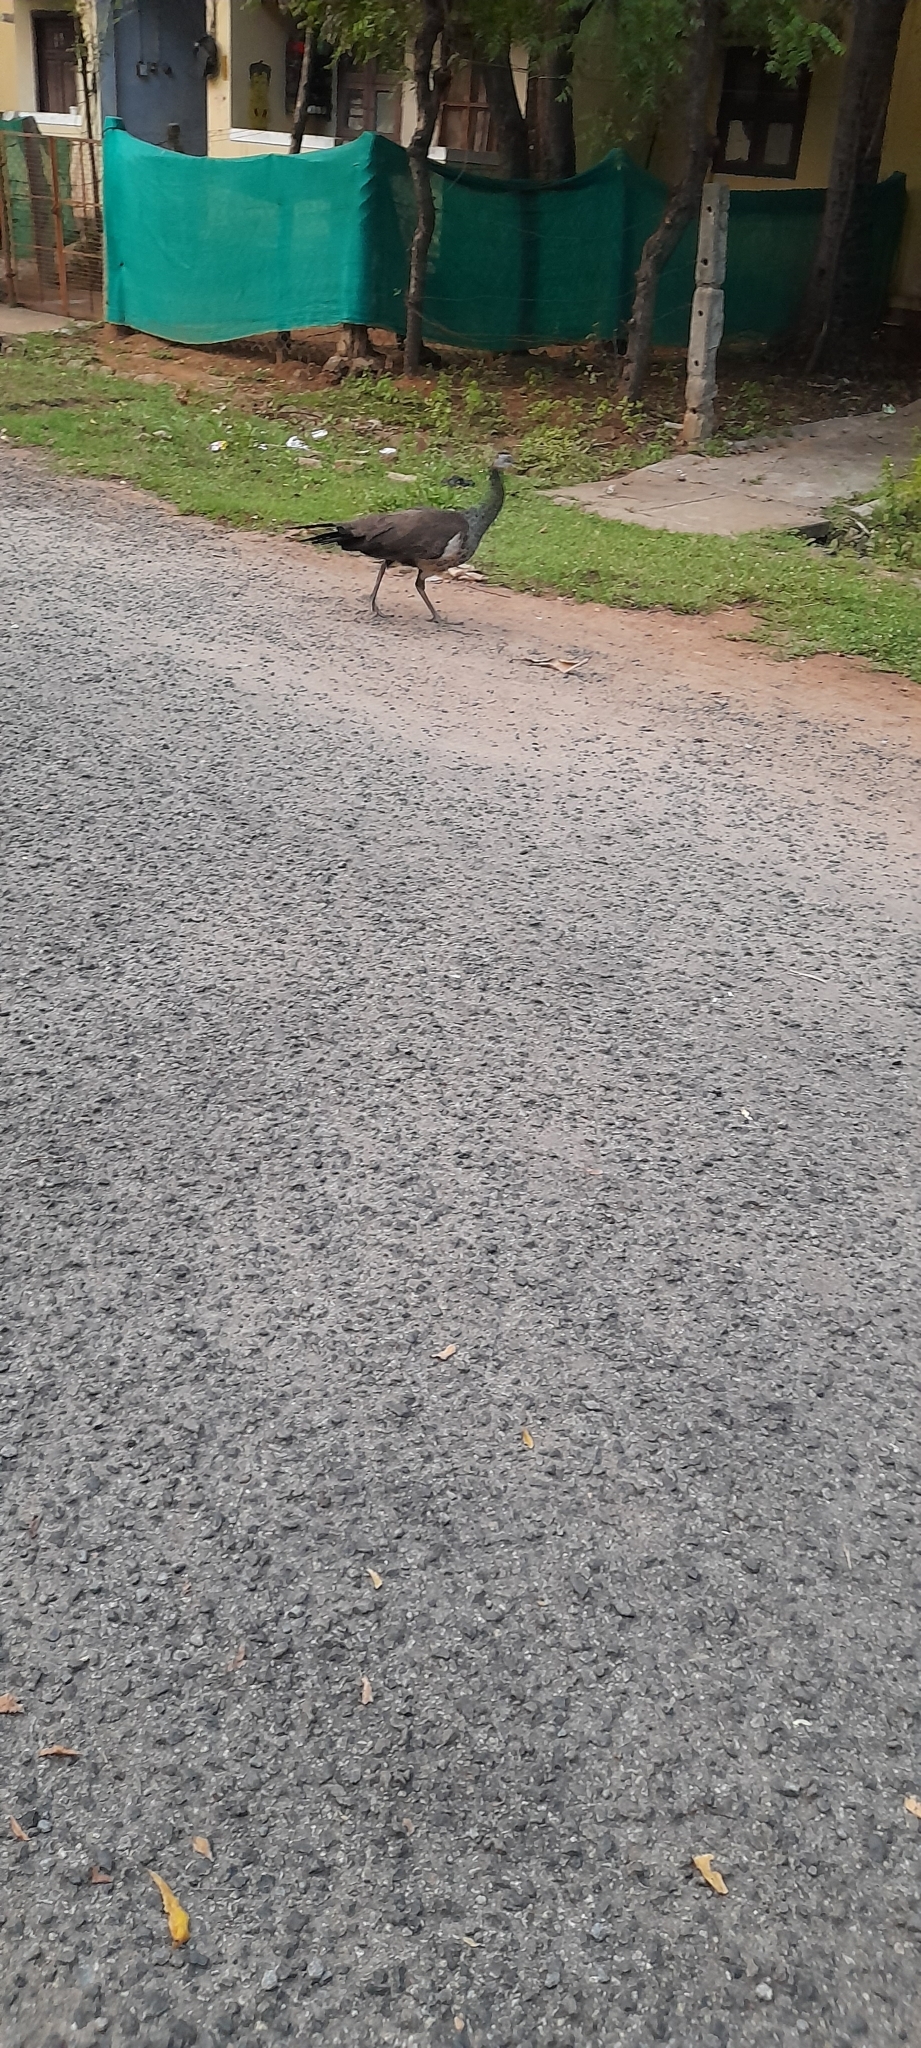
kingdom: Animalia
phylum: Chordata
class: Aves
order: Galliformes
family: Phasianidae
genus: Pavo
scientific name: Pavo cristatus
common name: Indian peafowl
